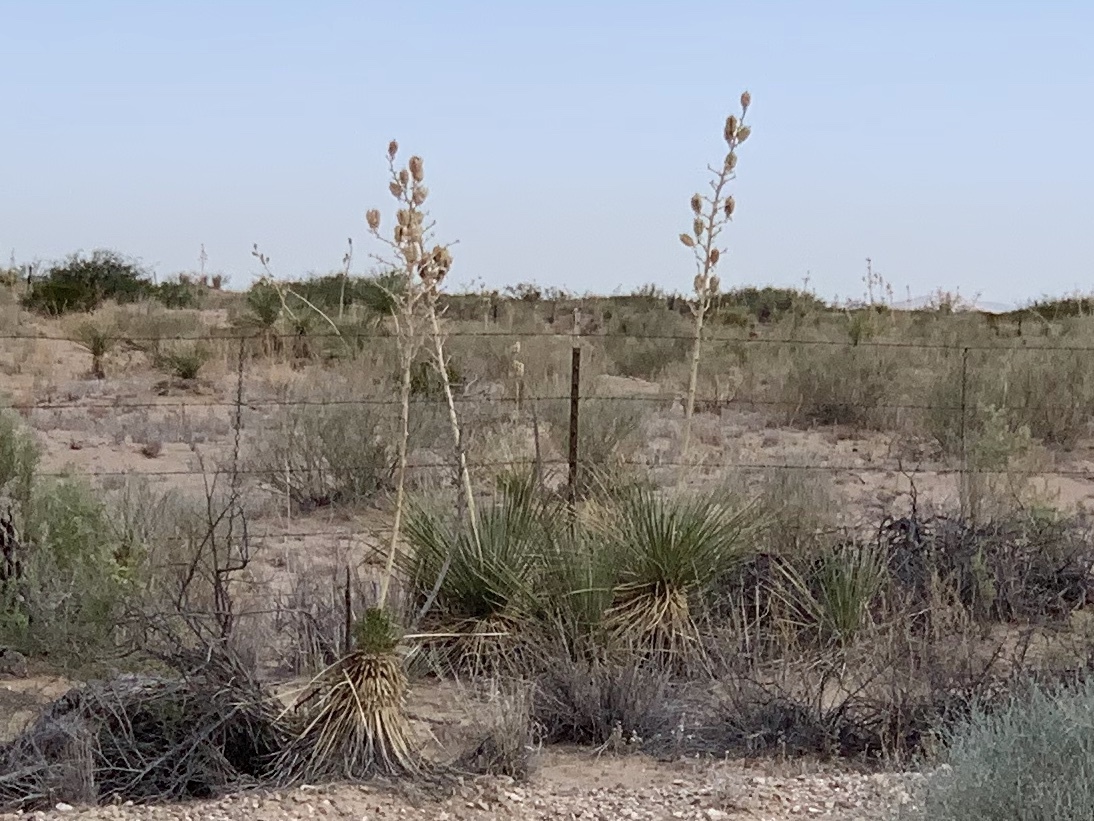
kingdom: Plantae
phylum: Tracheophyta
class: Liliopsida
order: Asparagales
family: Asparagaceae
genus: Yucca
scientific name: Yucca elata
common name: Palmella
